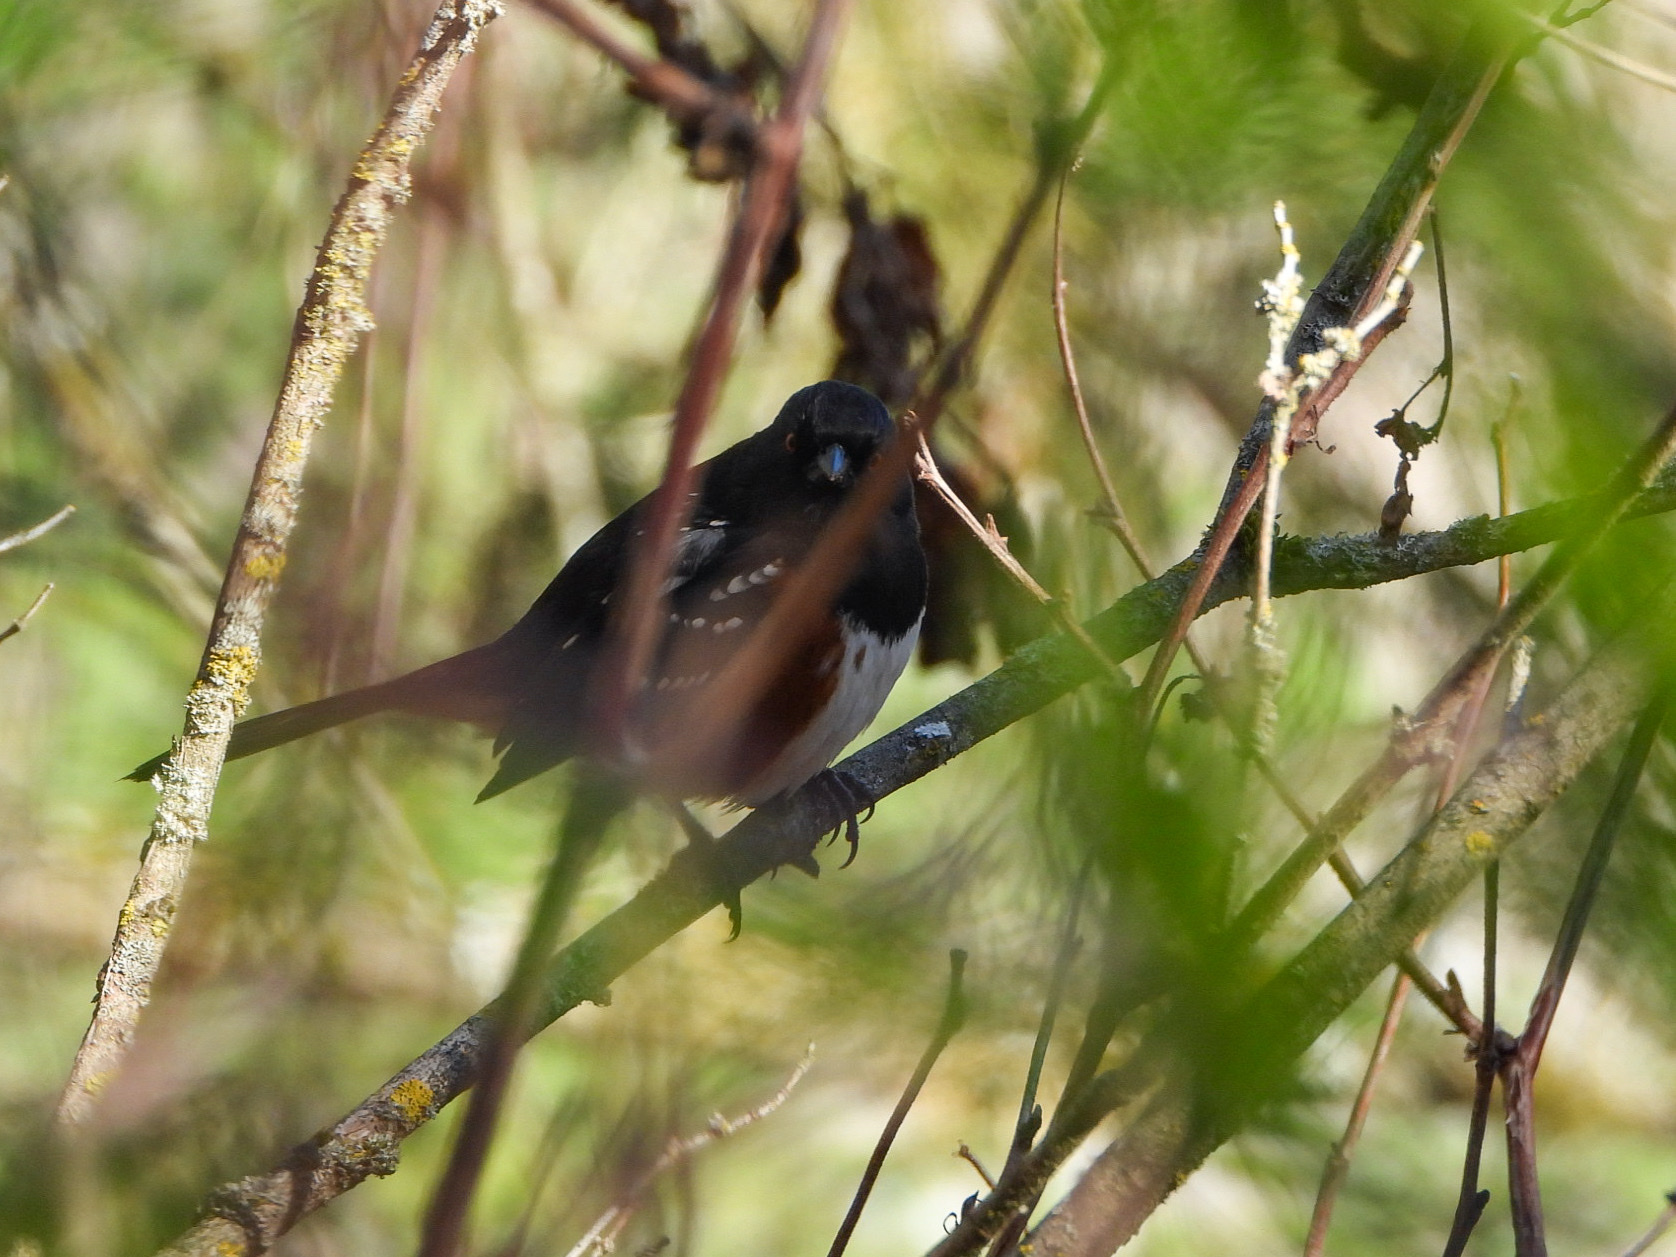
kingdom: Animalia
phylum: Chordata
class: Aves
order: Passeriformes
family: Passerellidae
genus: Pipilo
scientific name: Pipilo maculatus
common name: Spotted towhee
